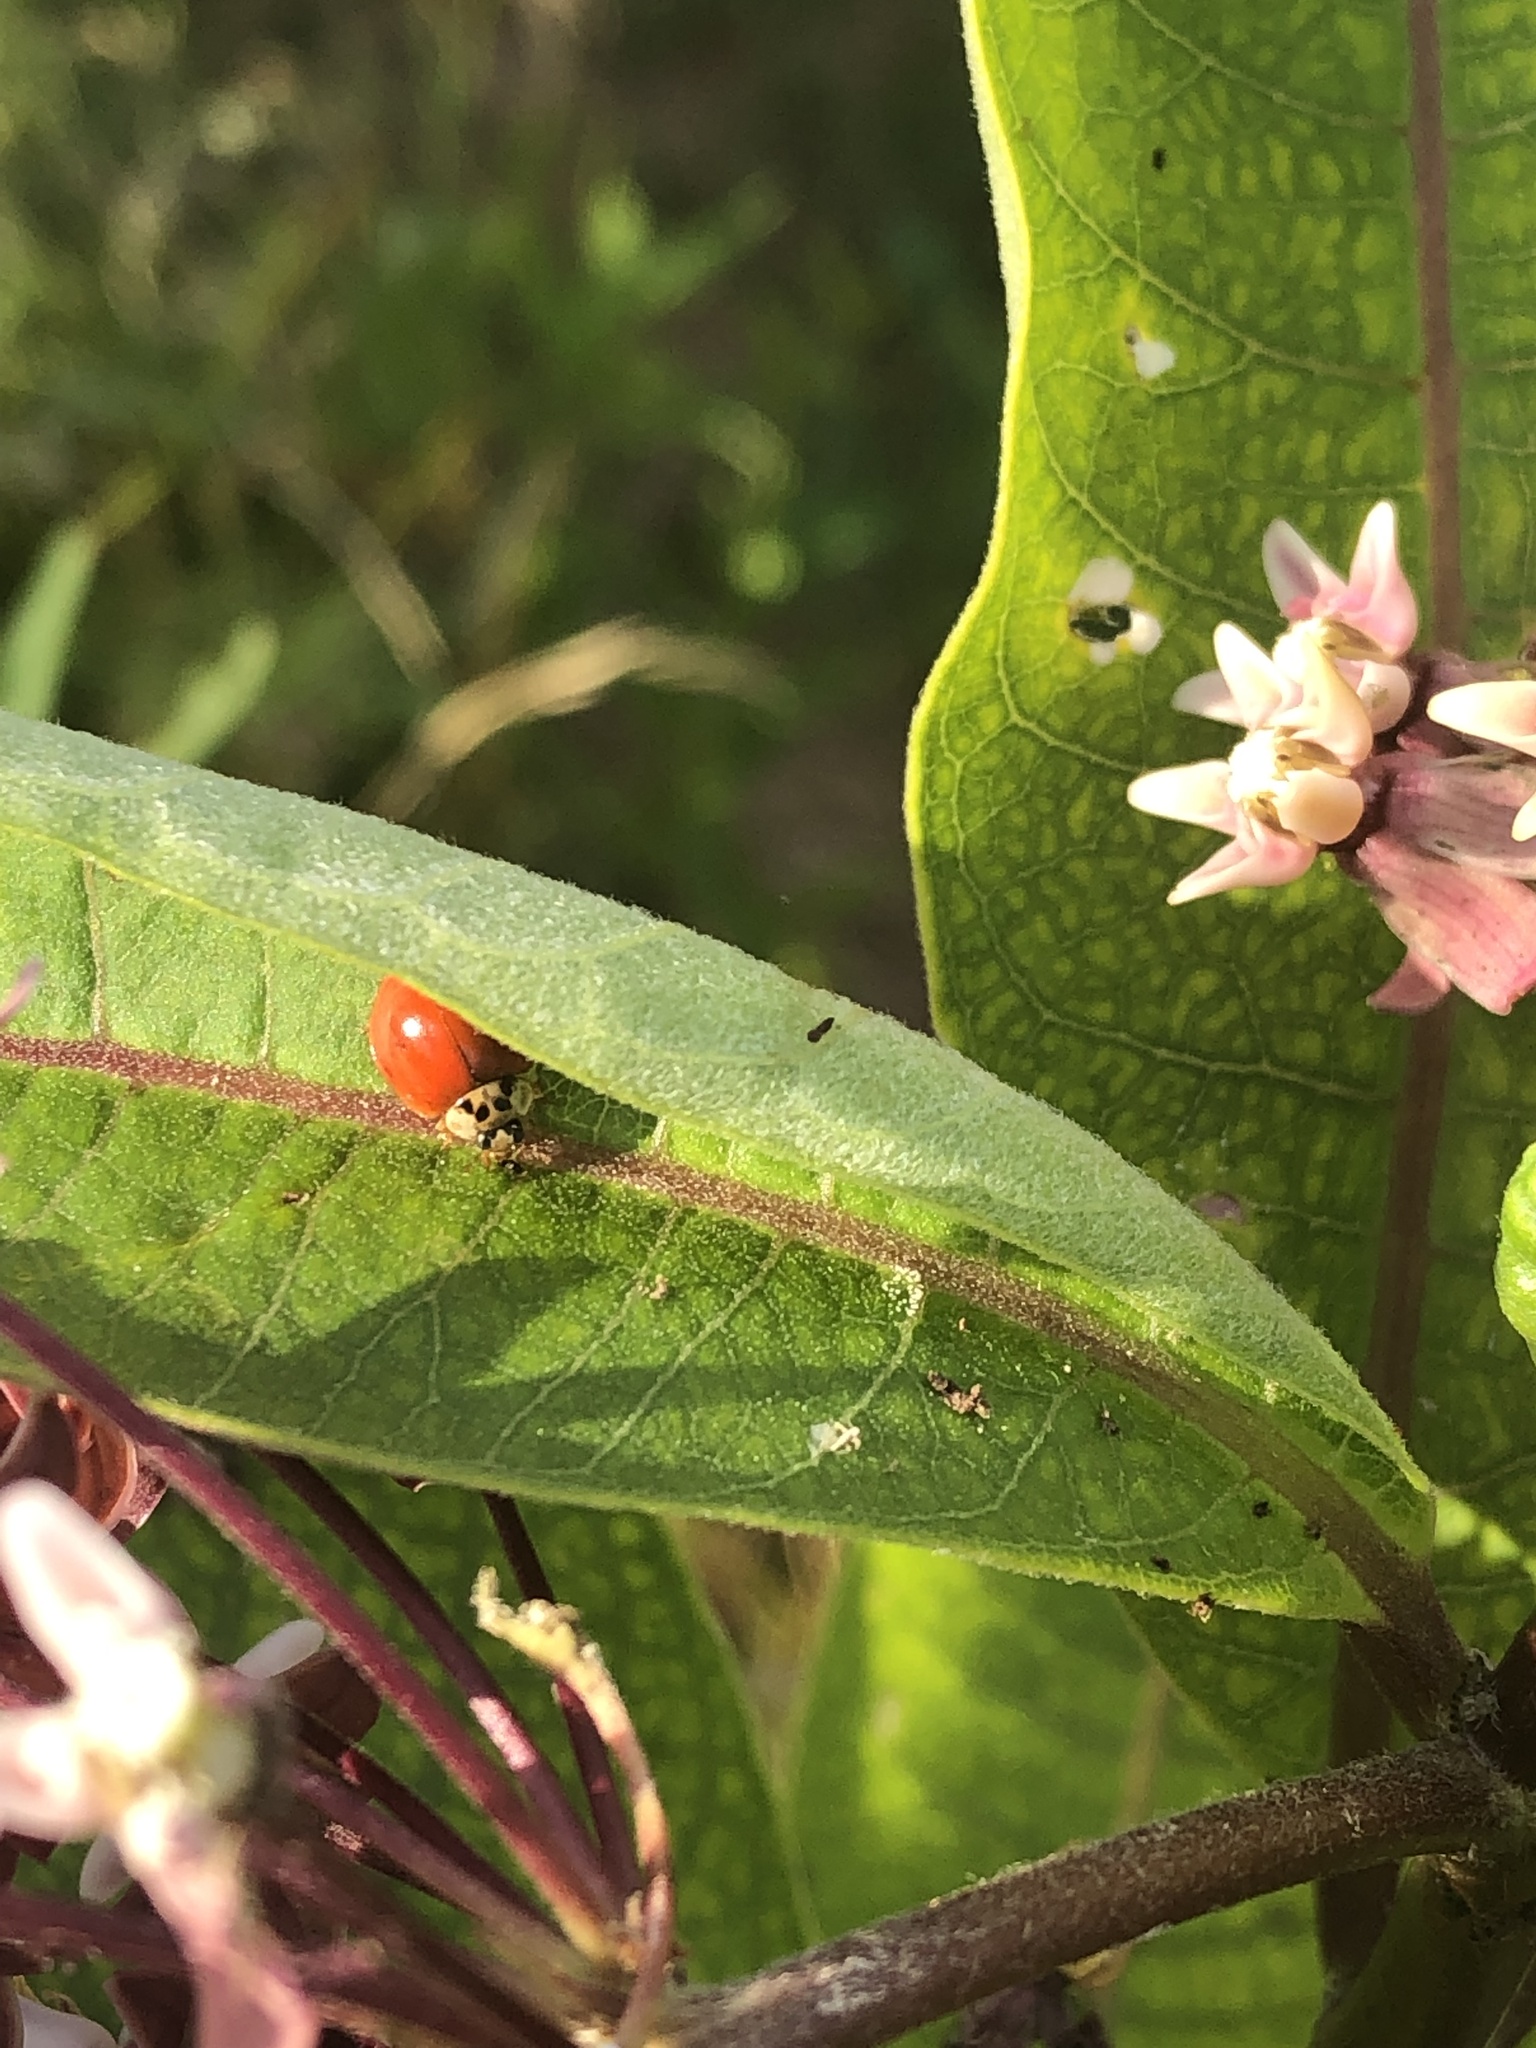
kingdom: Animalia
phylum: Arthropoda
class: Insecta
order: Coleoptera
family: Coccinellidae
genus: Harmonia
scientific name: Harmonia axyridis
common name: Harlequin ladybird
